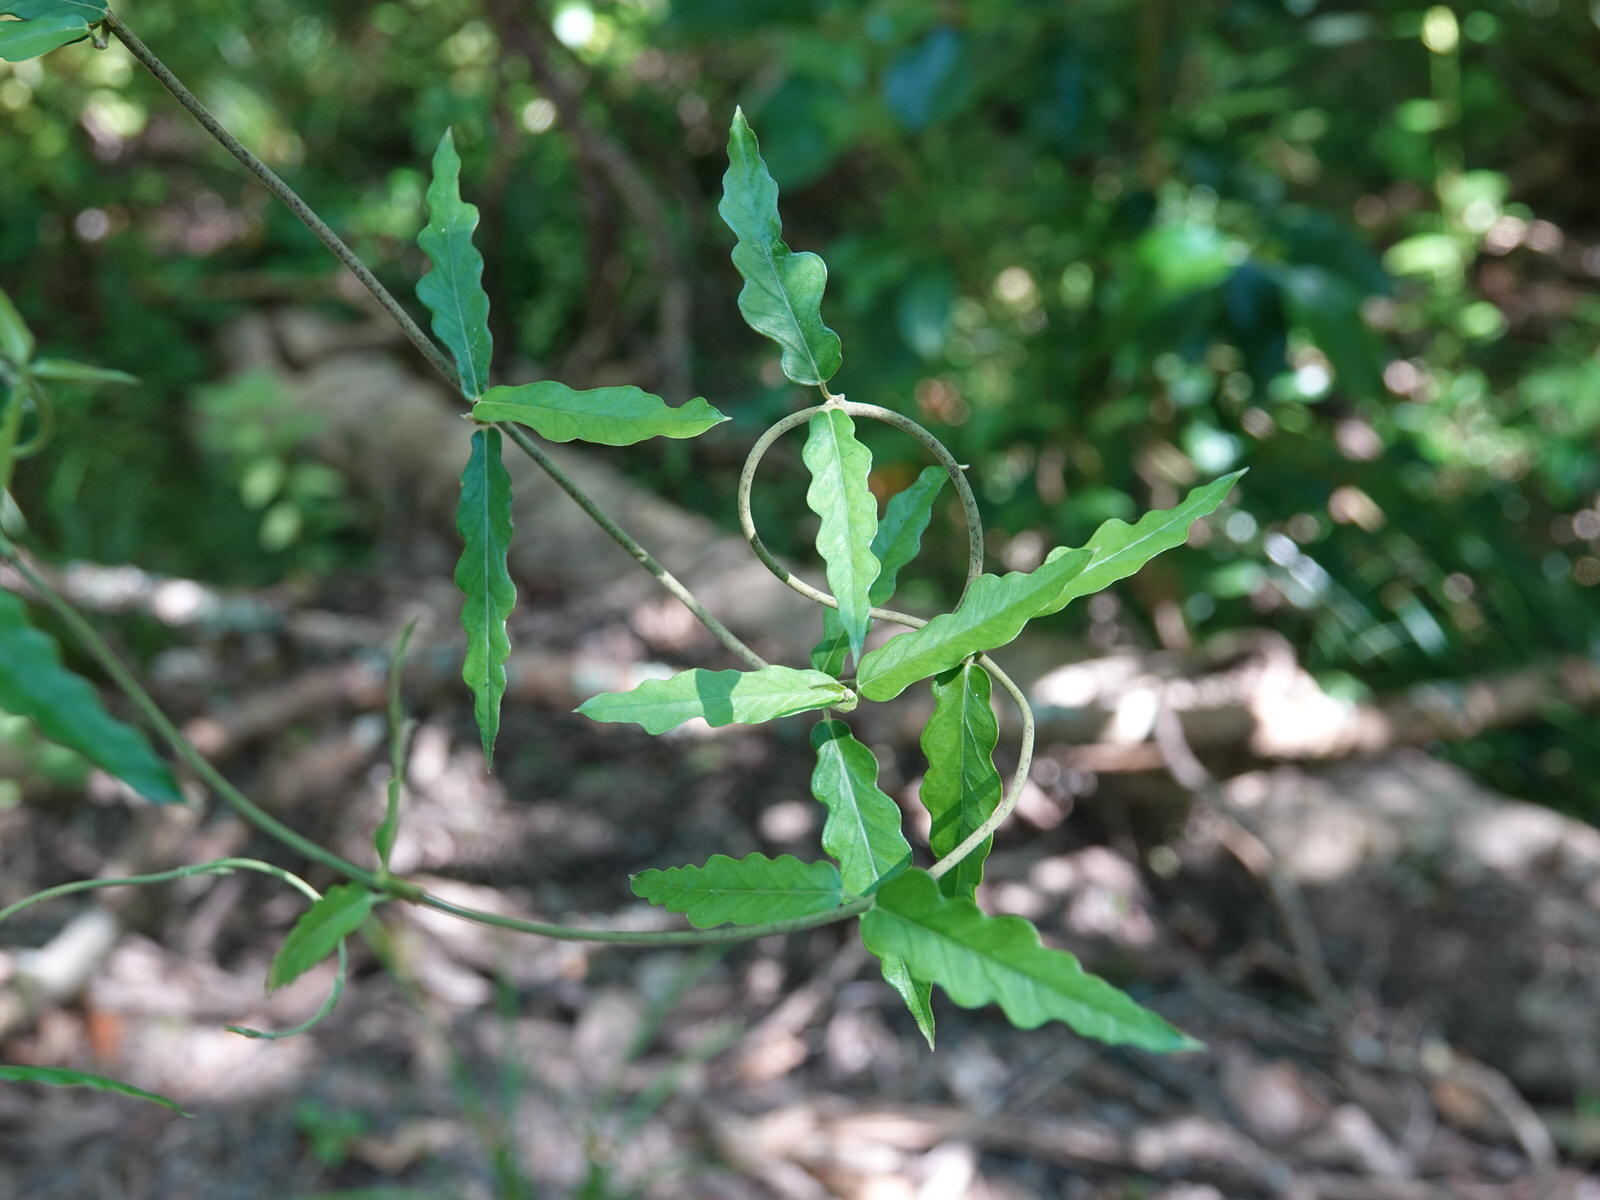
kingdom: Plantae
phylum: Tracheophyta
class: Magnoliopsida
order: Gentianales
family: Apocynaceae
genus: Parsonsia
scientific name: Parsonsia heterophylla
